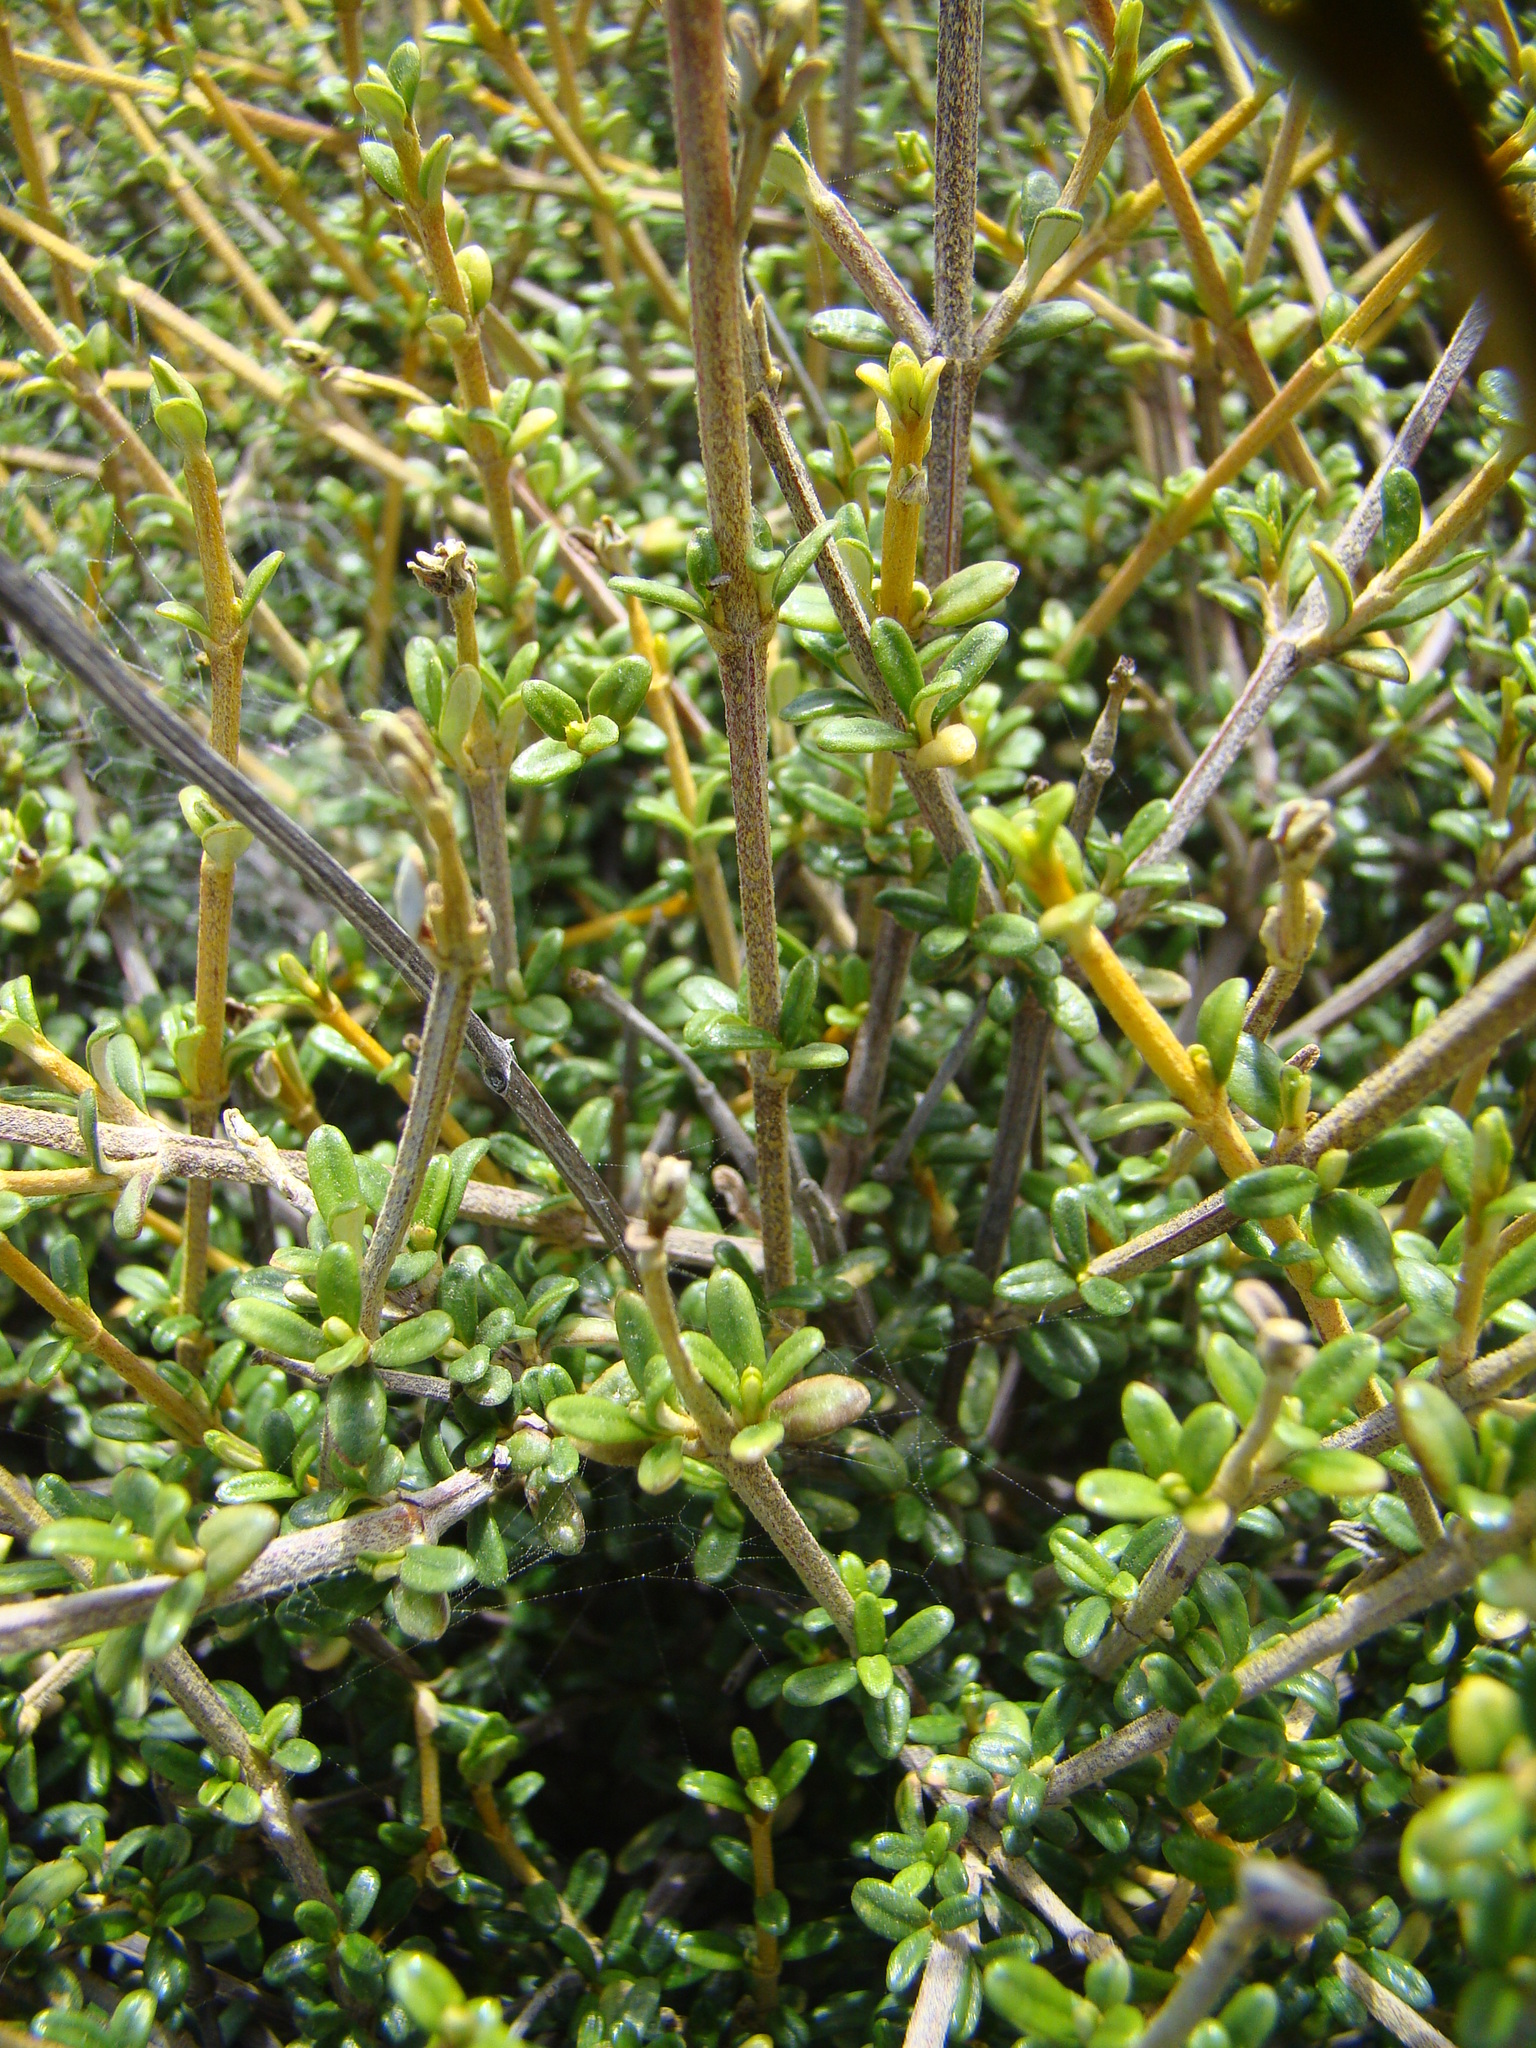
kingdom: Plantae
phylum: Tracheophyta
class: Magnoliopsida
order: Asterales
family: Asteraceae
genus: Olearia
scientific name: Olearia solandri
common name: Coastal daisybush
